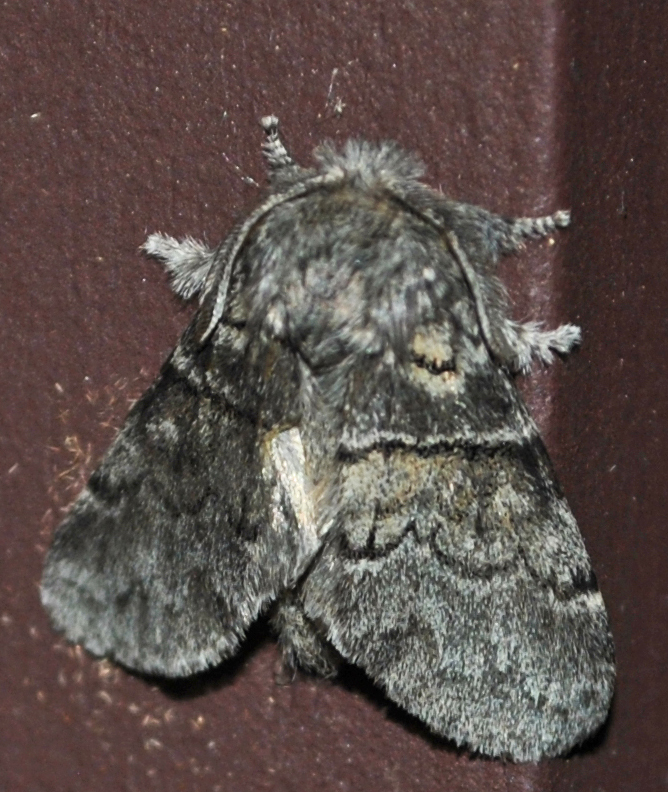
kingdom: Animalia
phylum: Arthropoda
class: Insecta
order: Lepidoptera
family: Notodontidae
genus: Gluphisia
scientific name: Gluphisia septentrionis
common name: Common gluphisia
